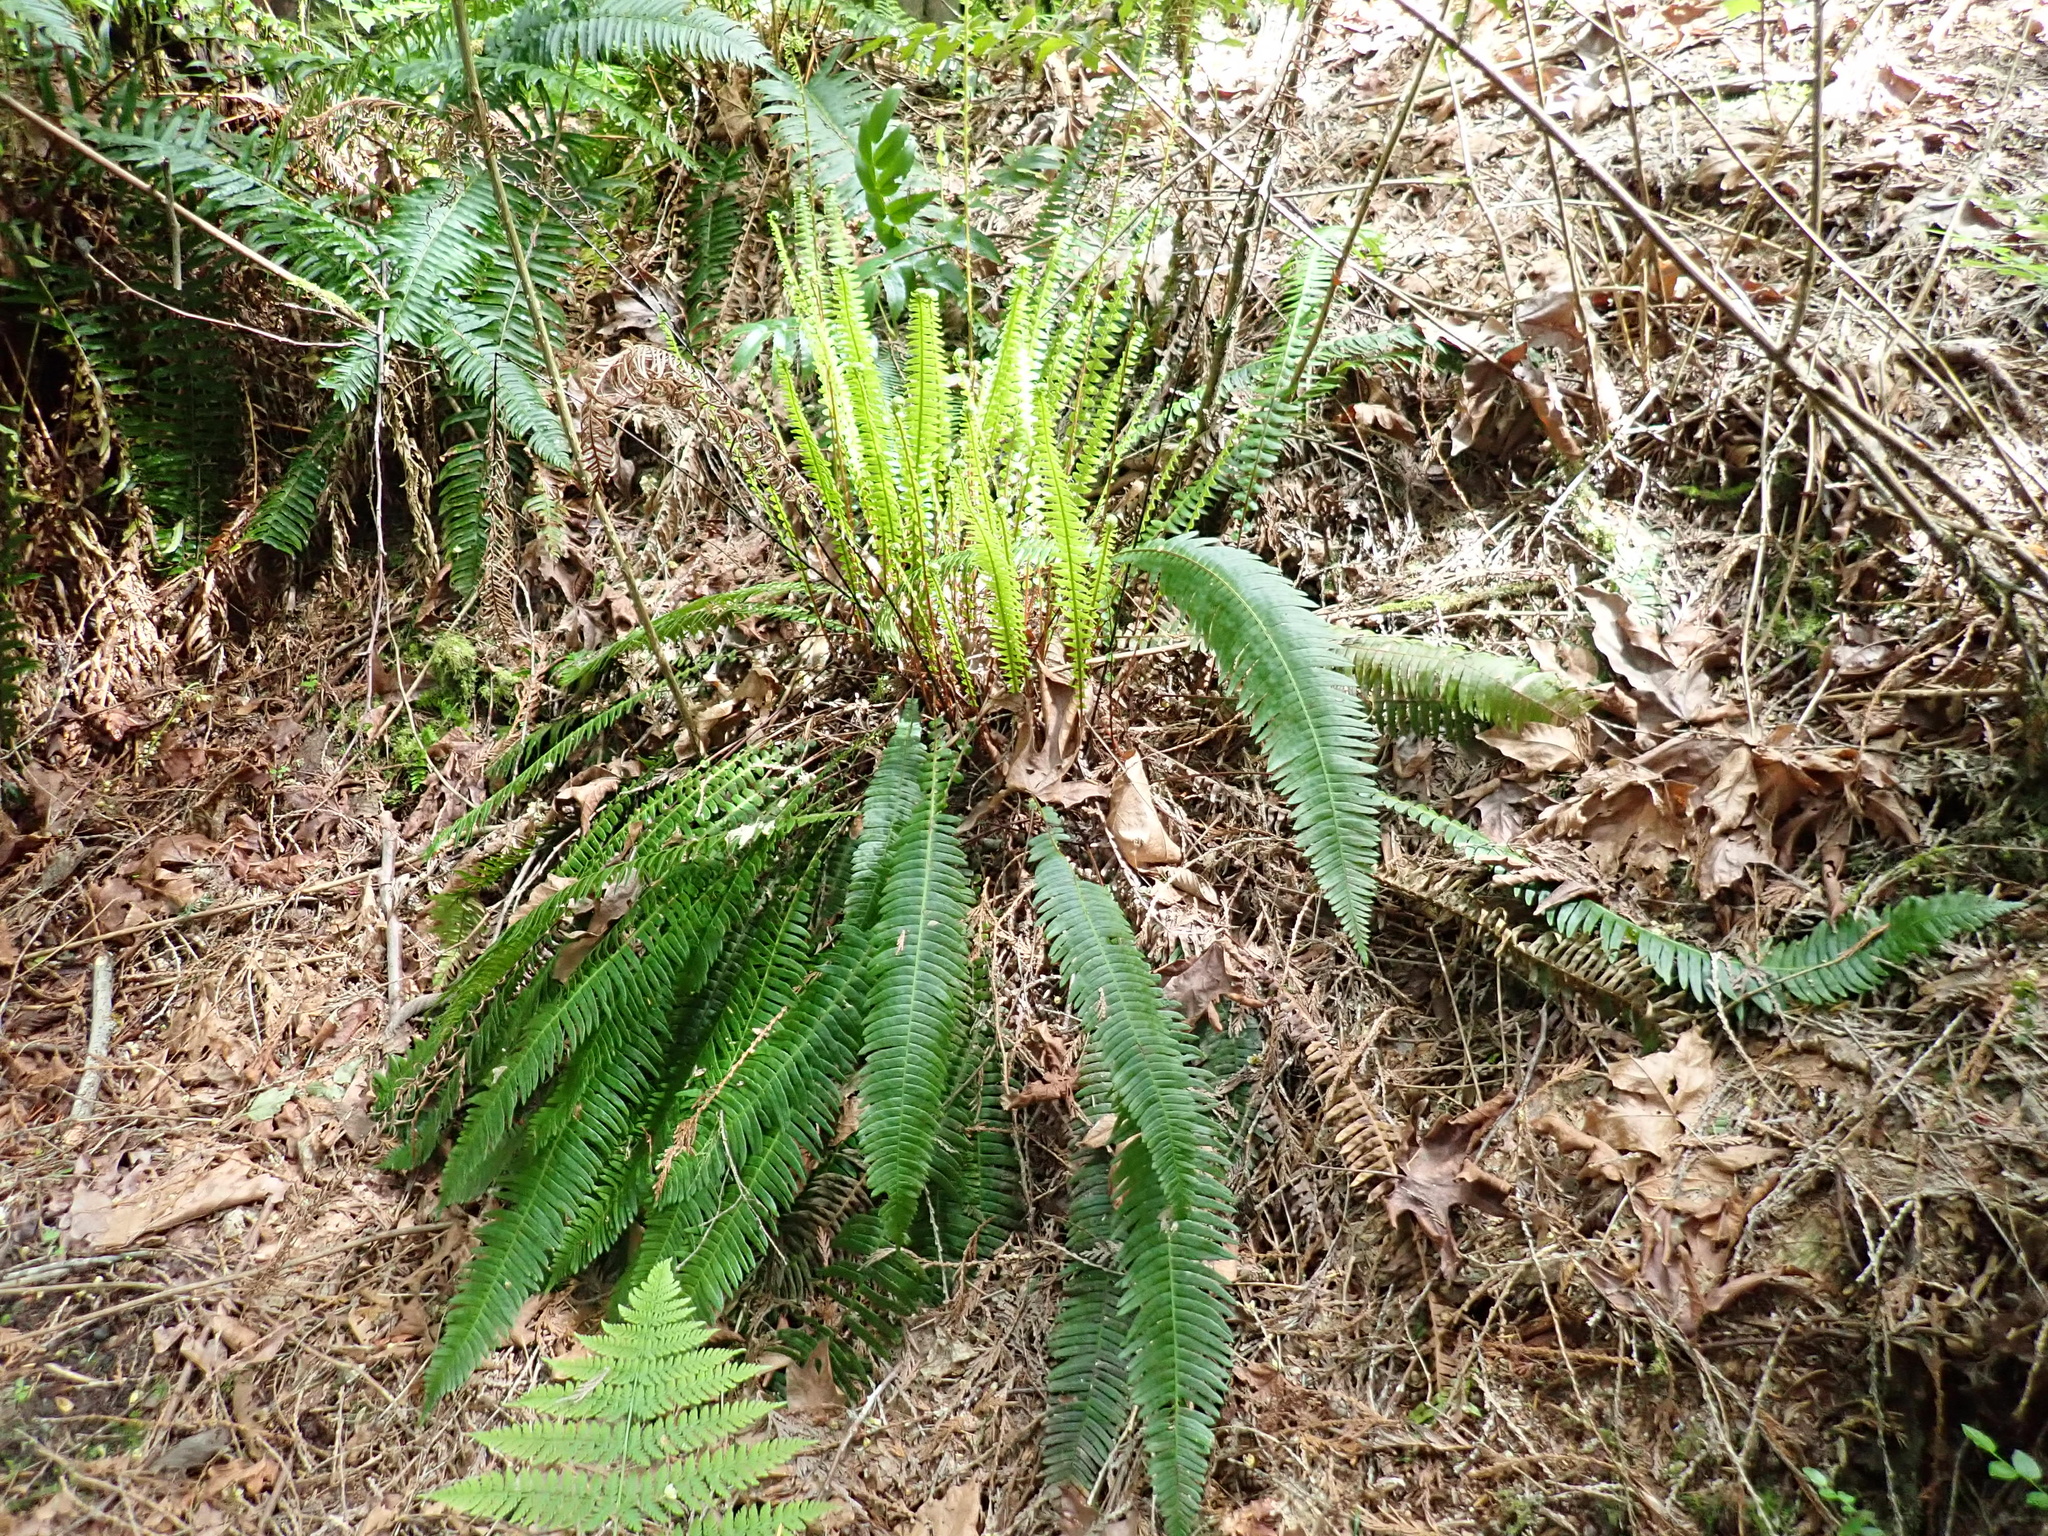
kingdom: Plantae
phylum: Tracheophyta
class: Polypodiopsida
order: Polypodiales
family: Blechnaceae
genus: Struthiopteris
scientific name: Struthiopteris spicant
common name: Deer fern
